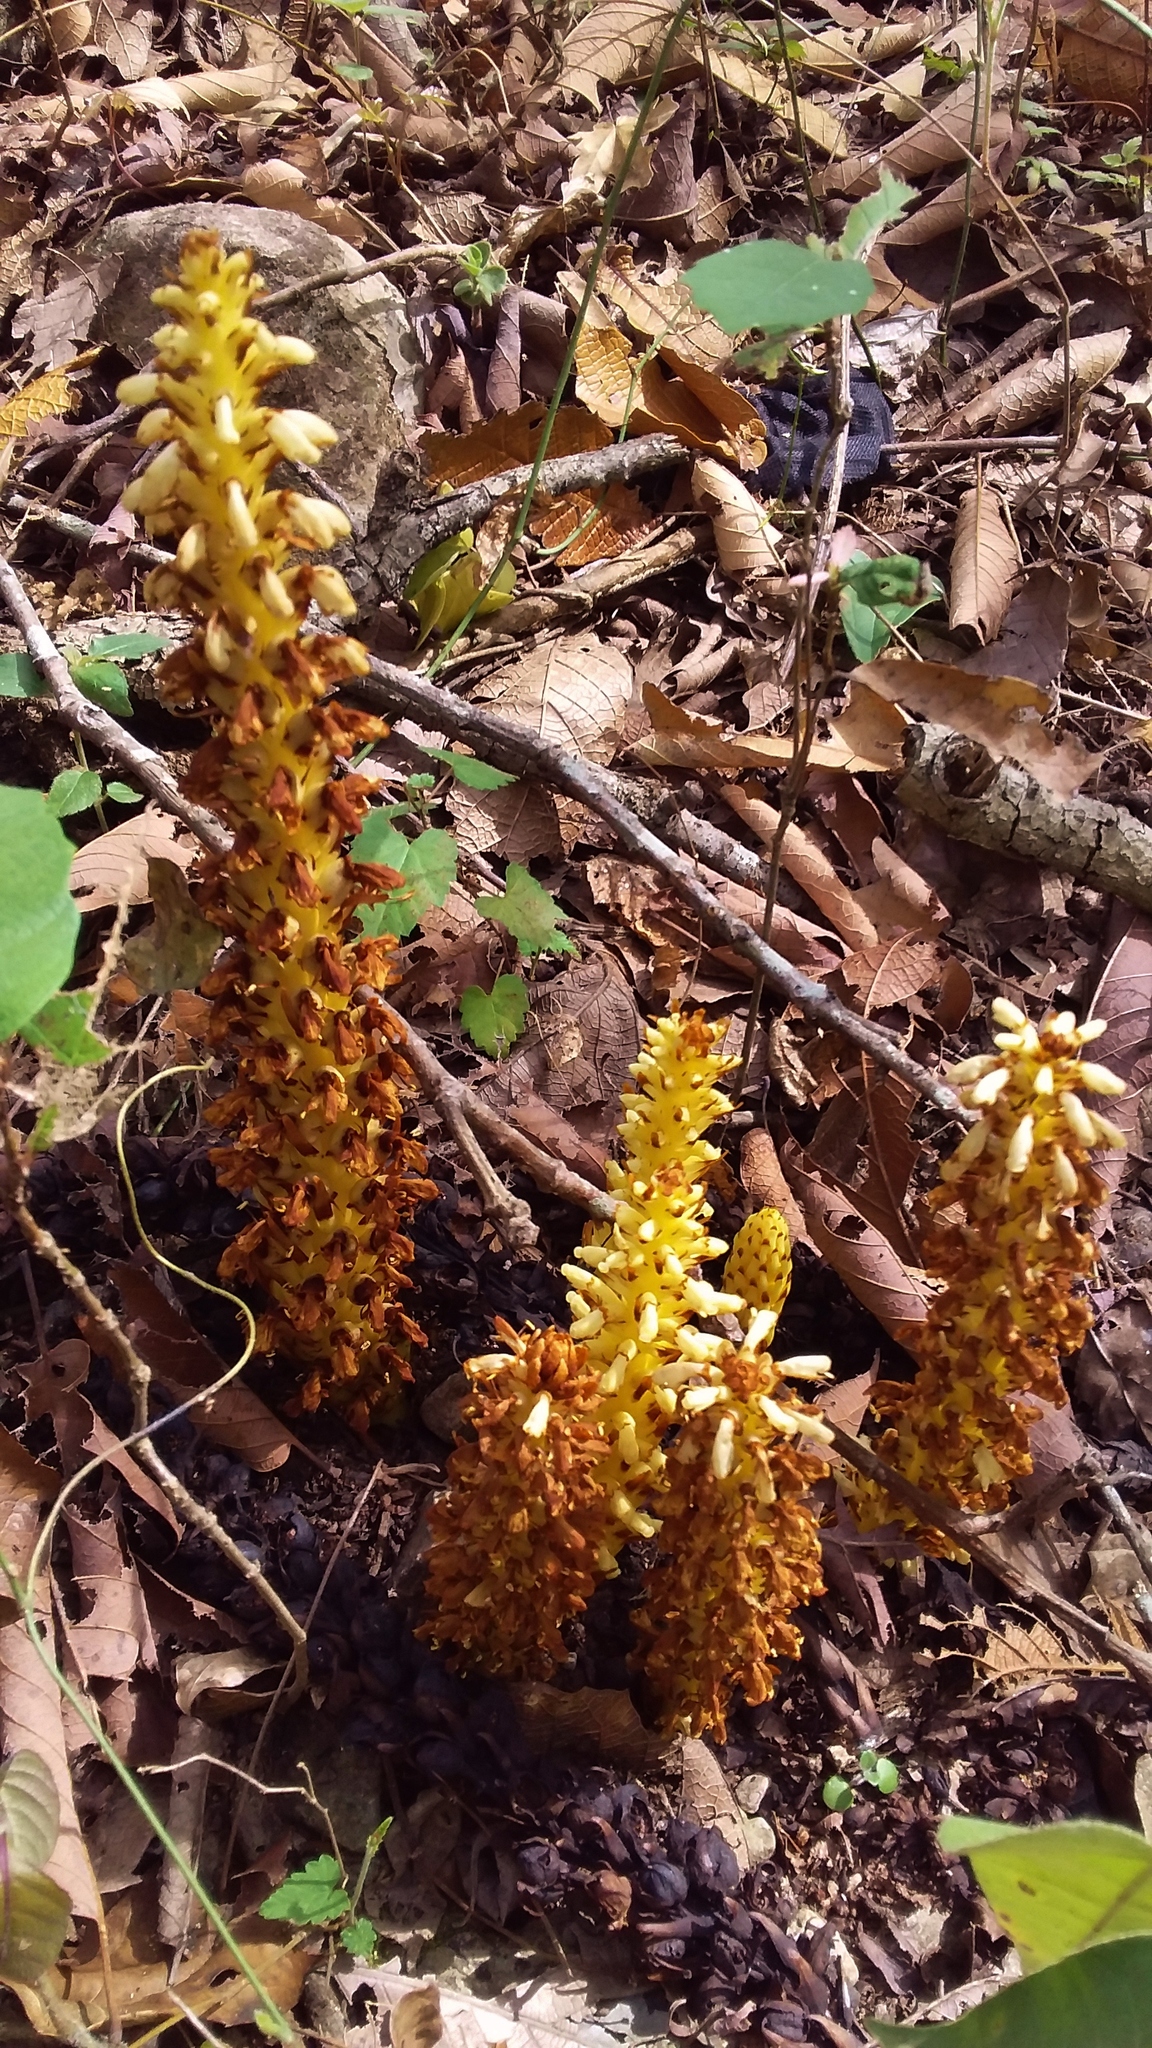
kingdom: Plantae
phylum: Tracheophyta
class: Magnoliopsida
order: Lamiales
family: Orobanchaceae
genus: Conopholis
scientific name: Conopholis alpina
